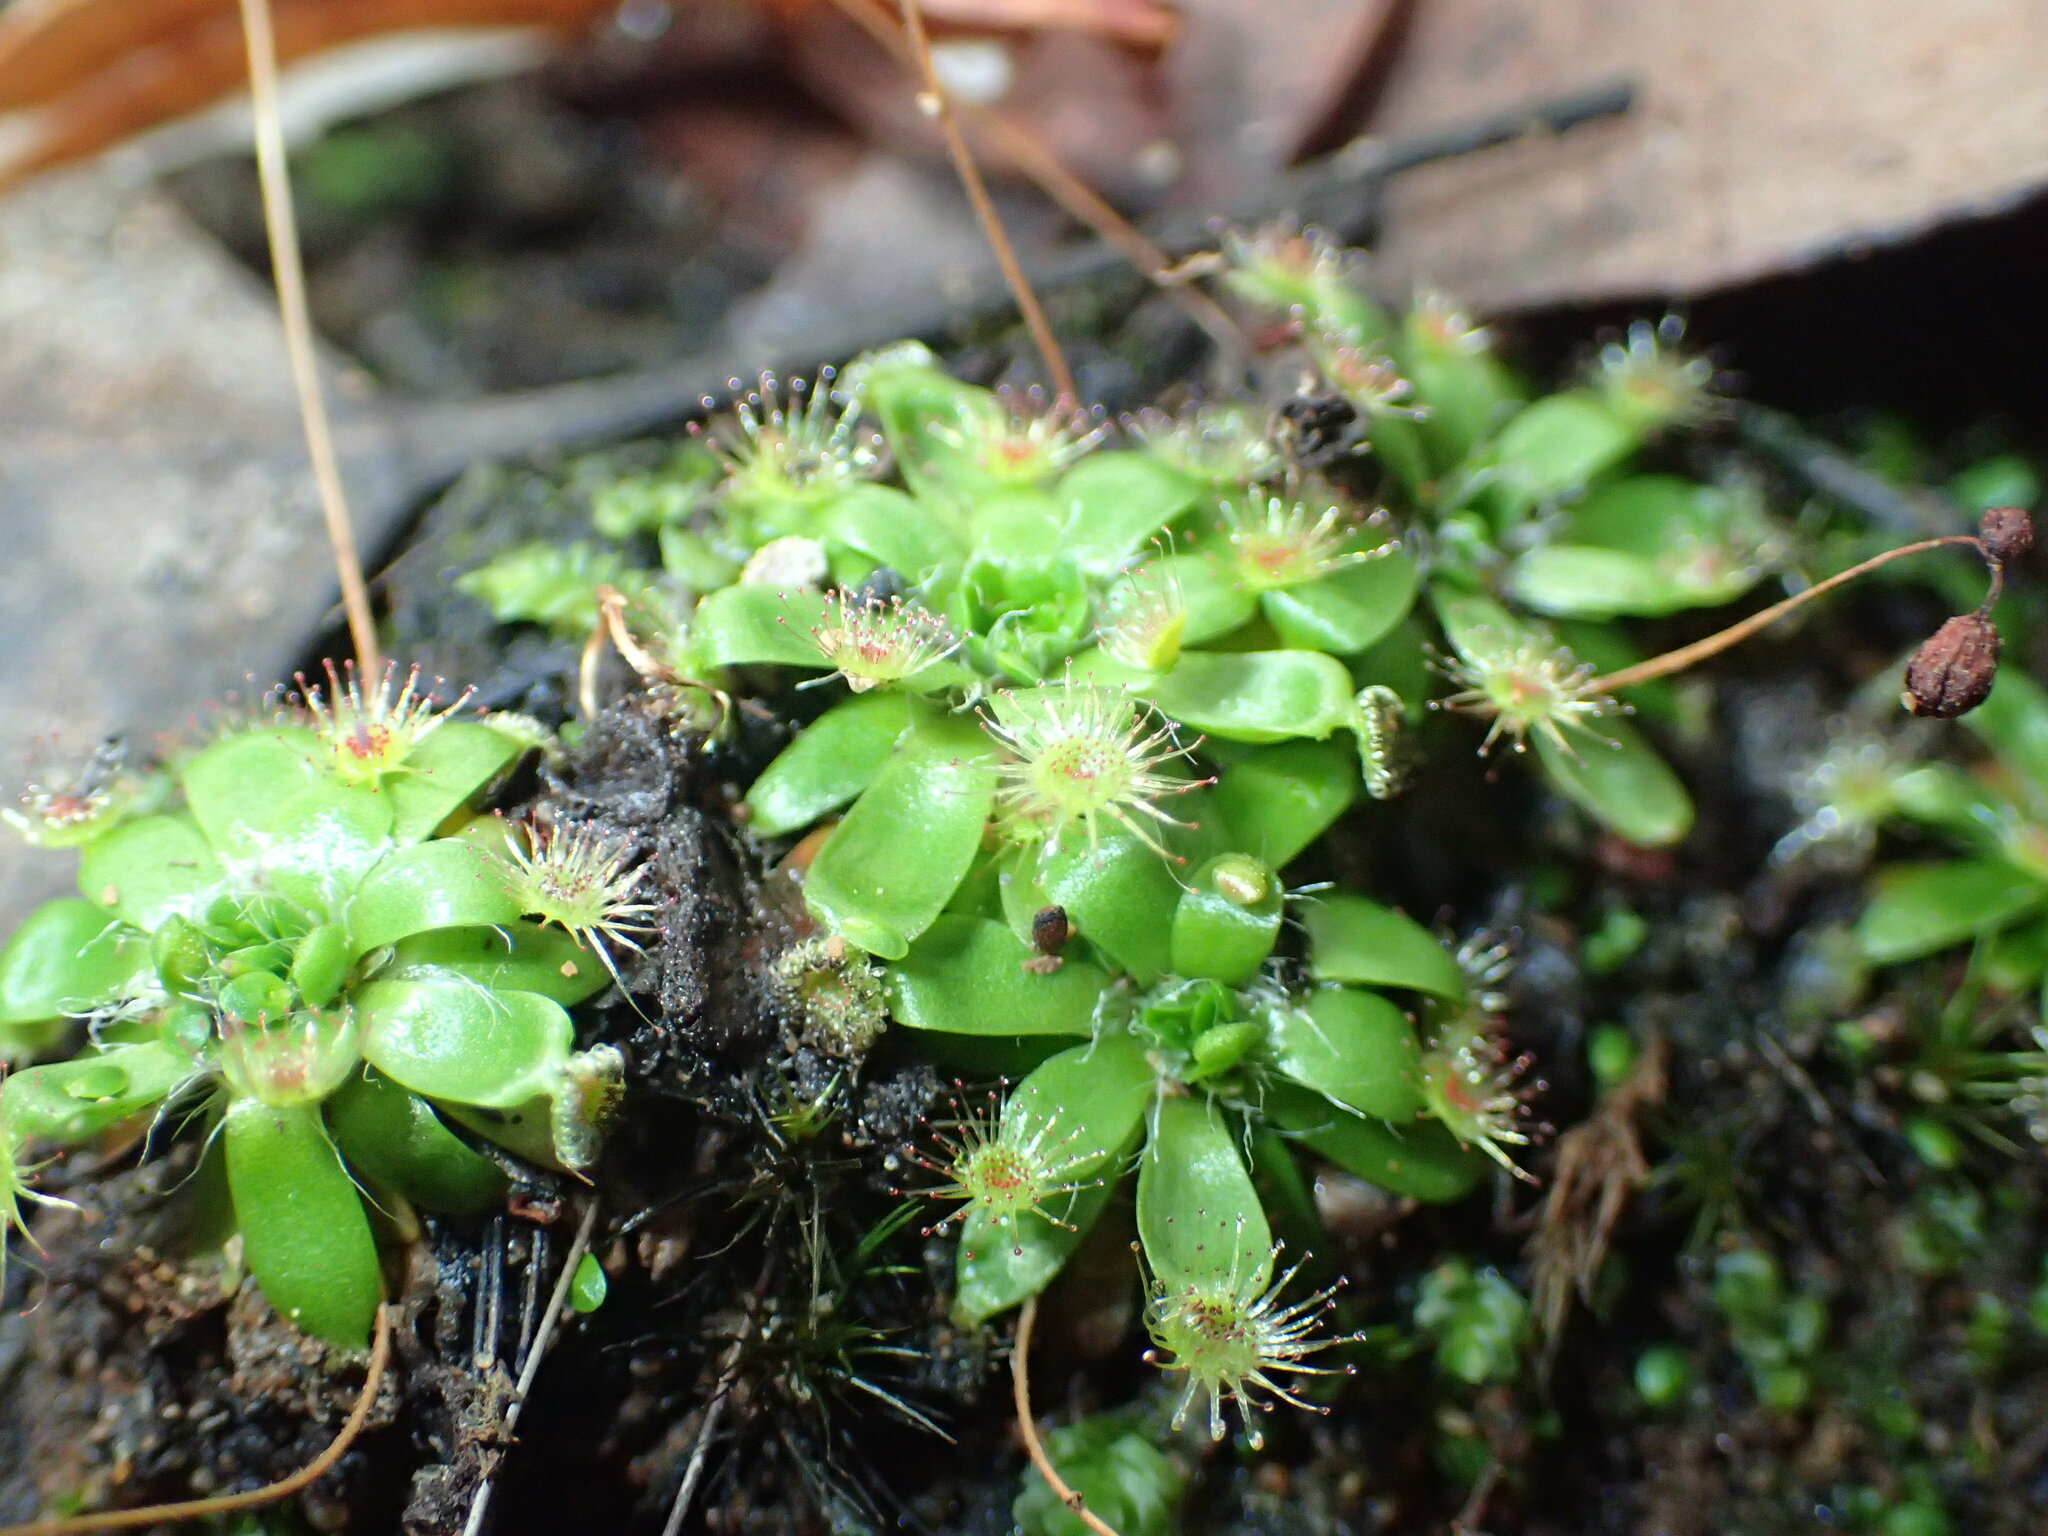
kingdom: Plantae
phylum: Tracheophyta
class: Magnoliopsida
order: Caryophyllales
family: Droseraceae
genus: Drosera
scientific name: Drosera pulchella
